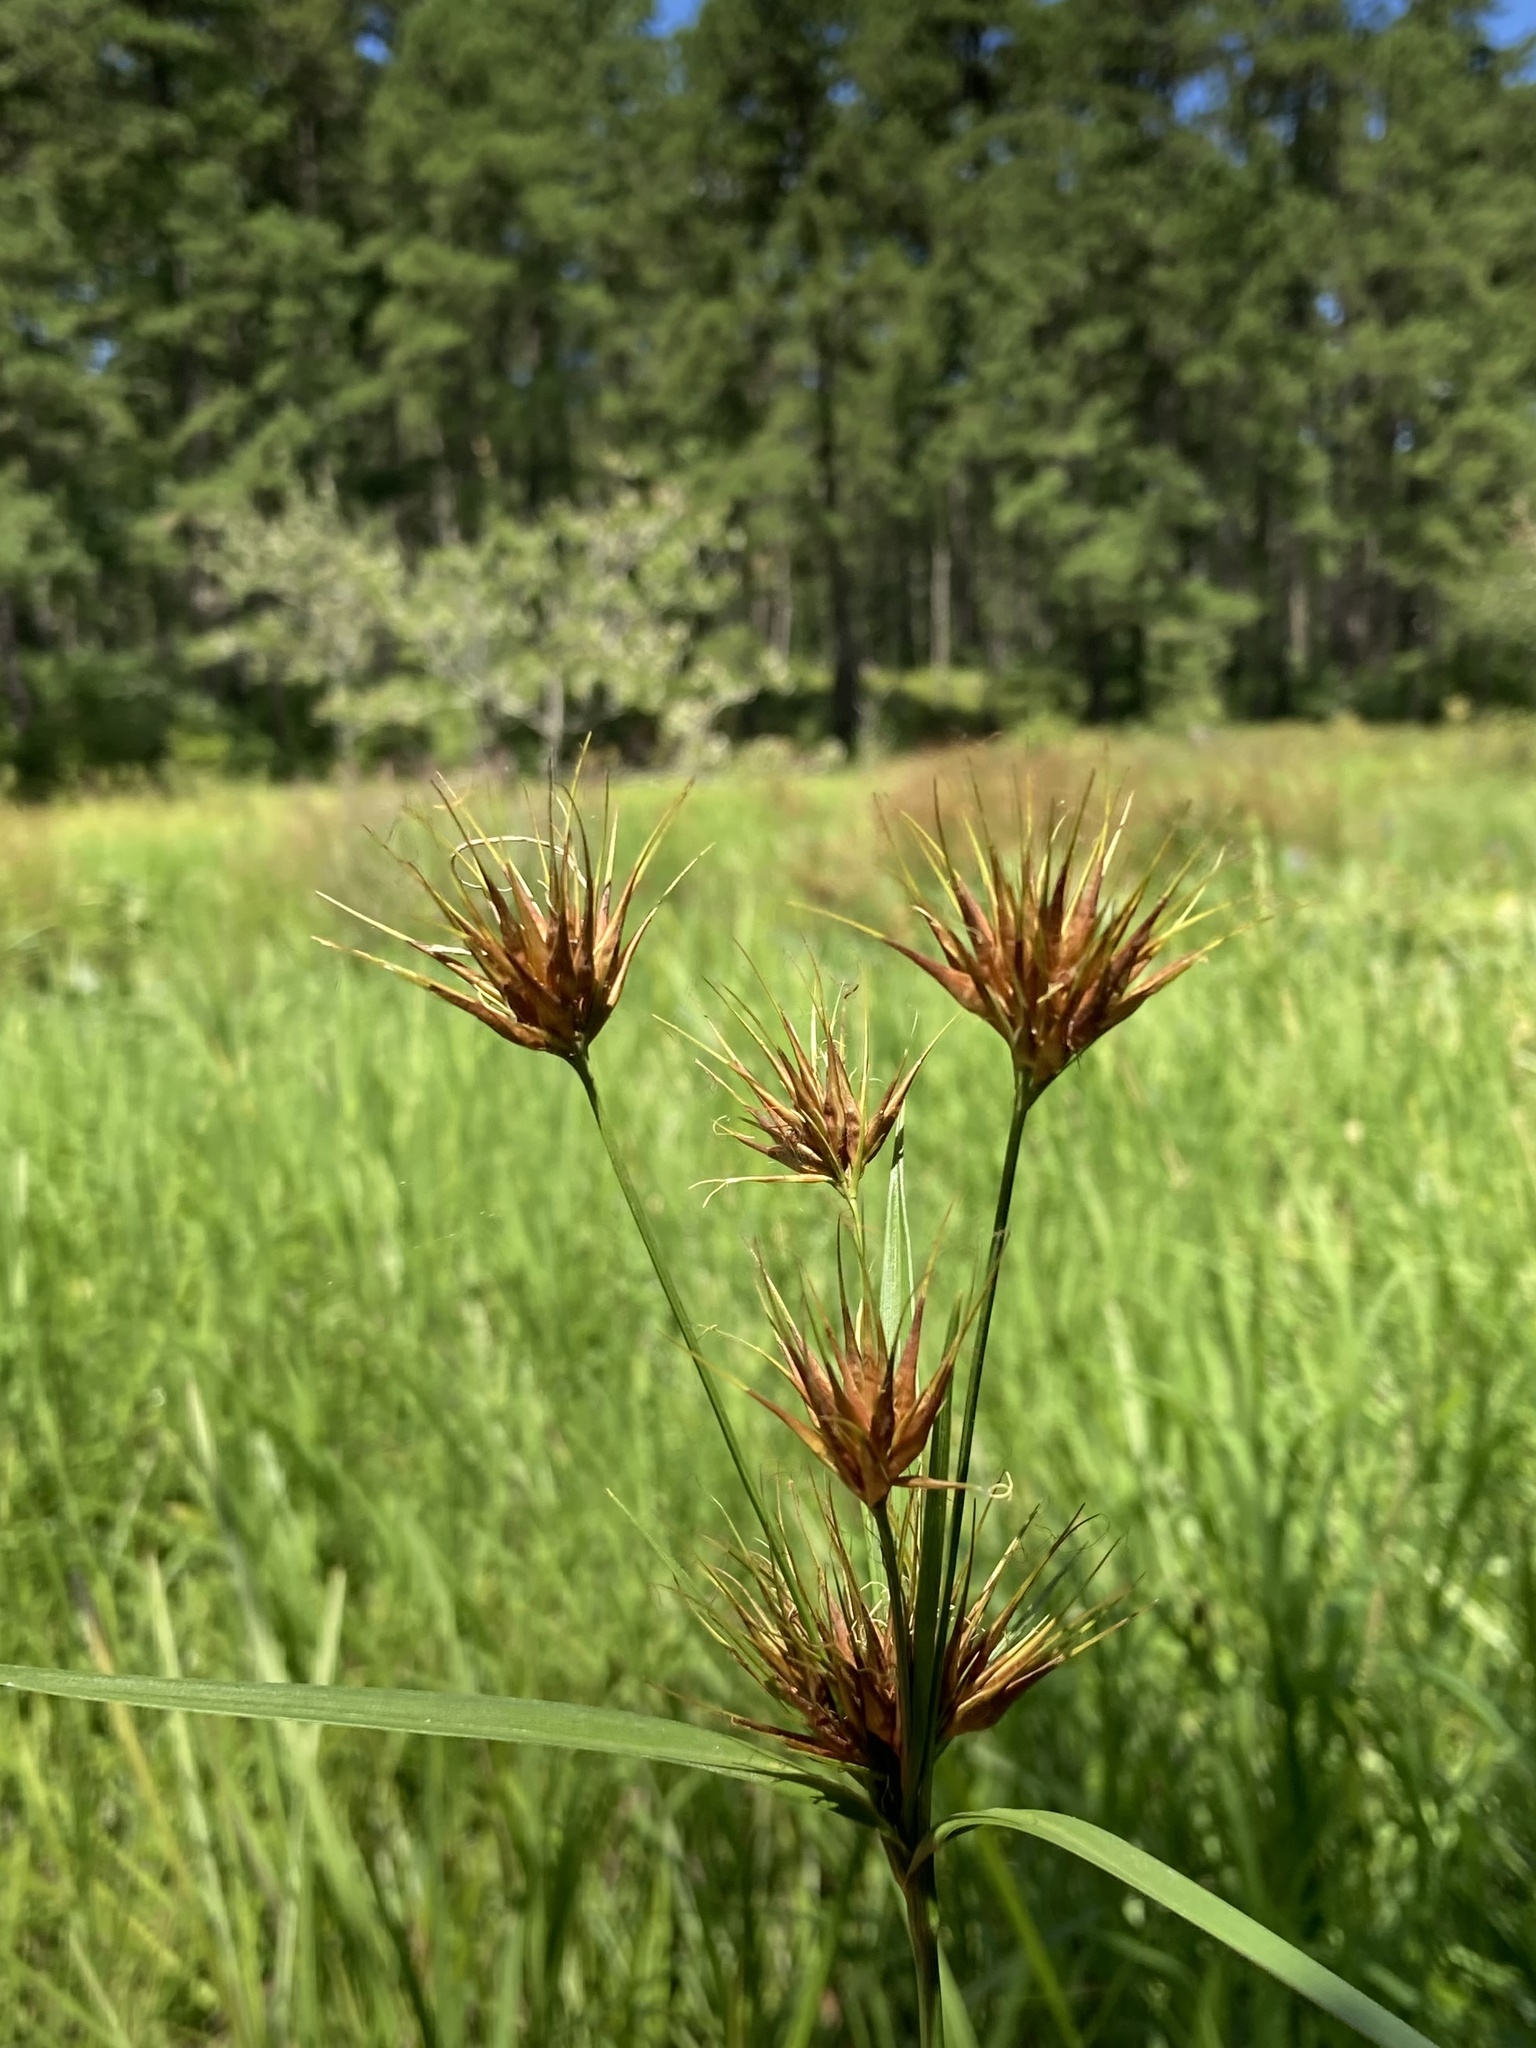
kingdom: Plantae
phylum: Tracheophyta
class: Liliopsida
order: Poales
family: Cyperaceae
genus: Rhynchospora
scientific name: Rhynchospora macrostachya
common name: Tall beakrush
